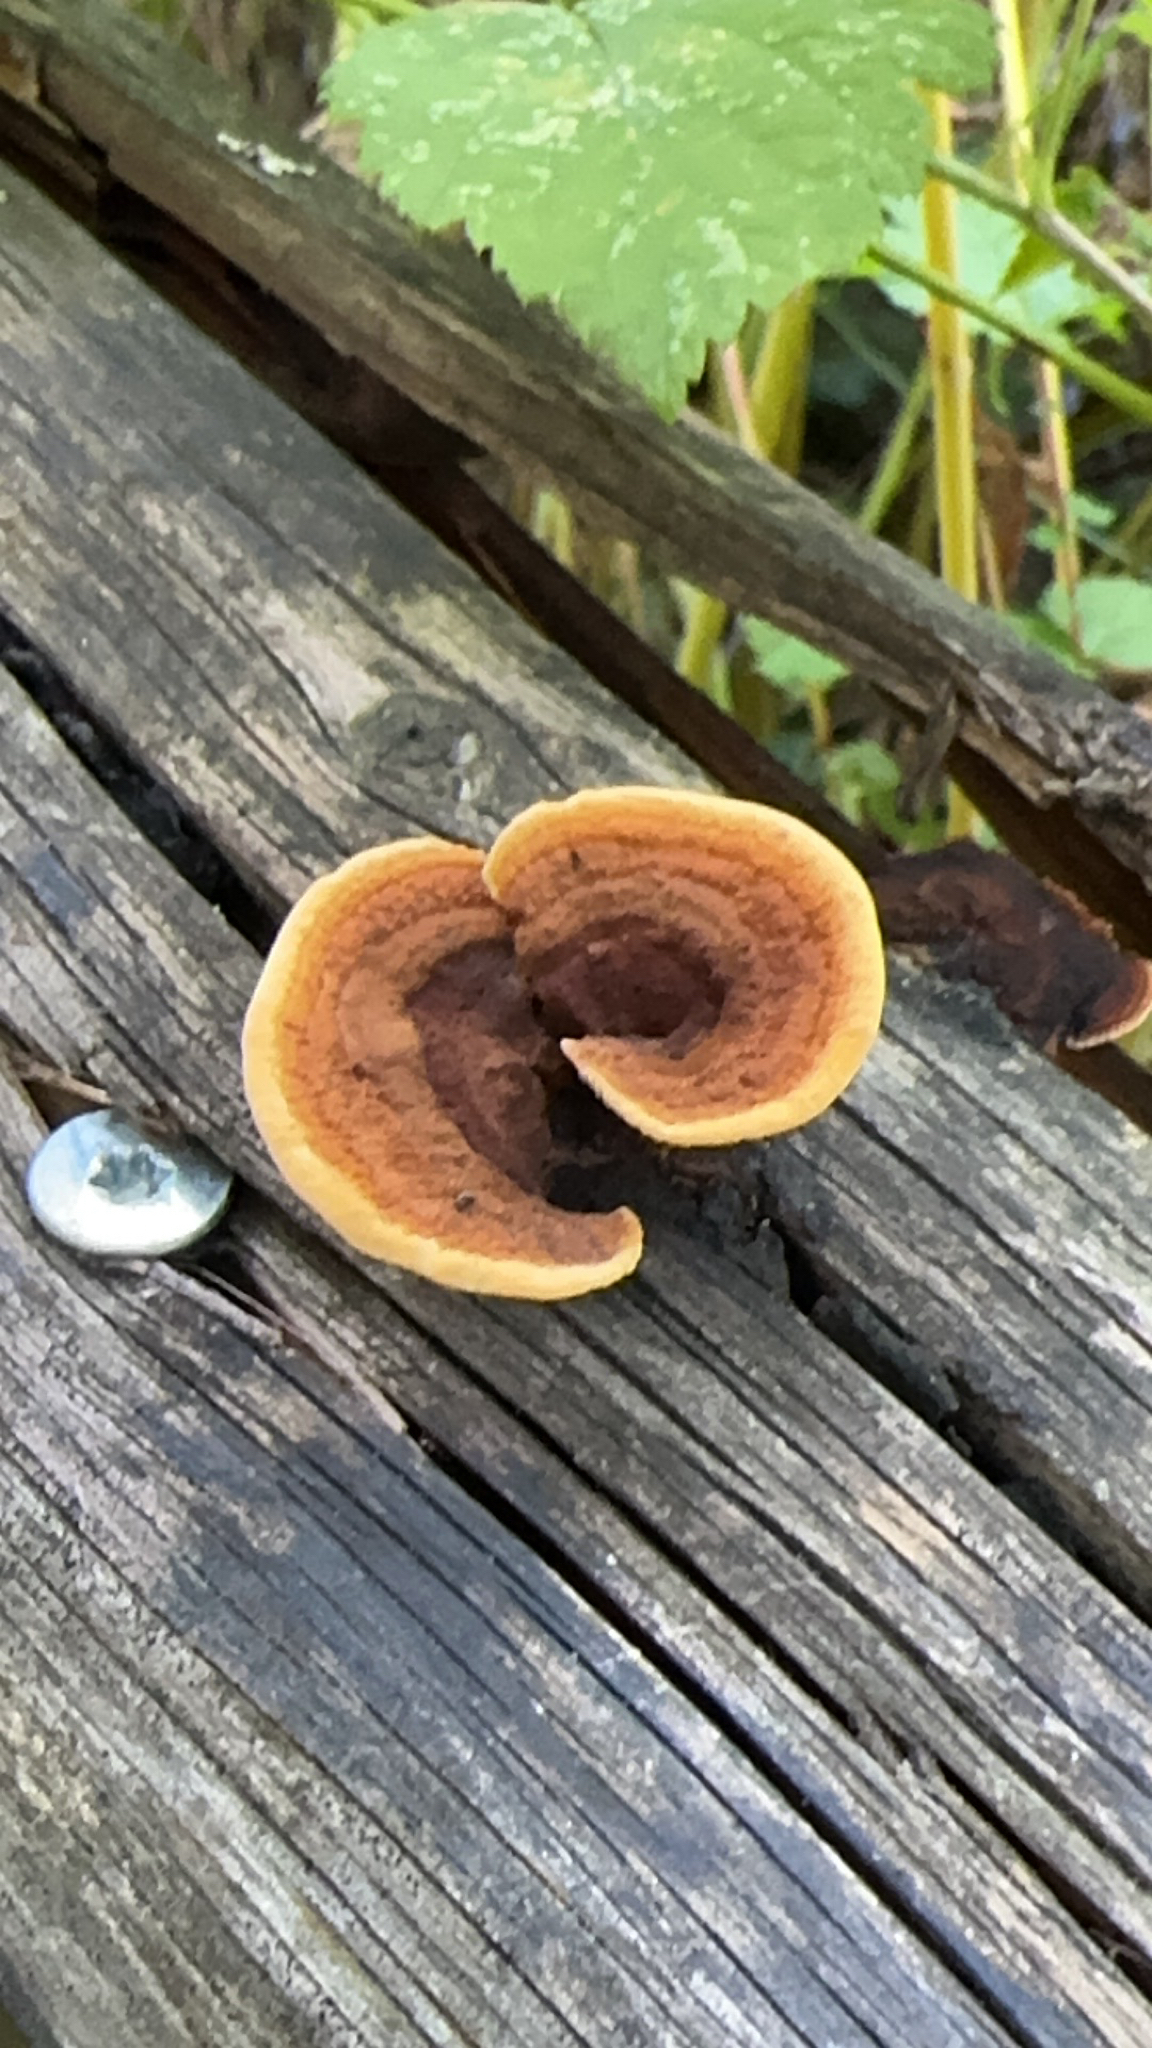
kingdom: Fungi
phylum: Basidiomycota
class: Agaricomycetes
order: Gloeophyllales
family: Gloeophyllaceae
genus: Gloeophyllum
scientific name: Gloeophyllum sepiarium
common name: Conifer mazegill
